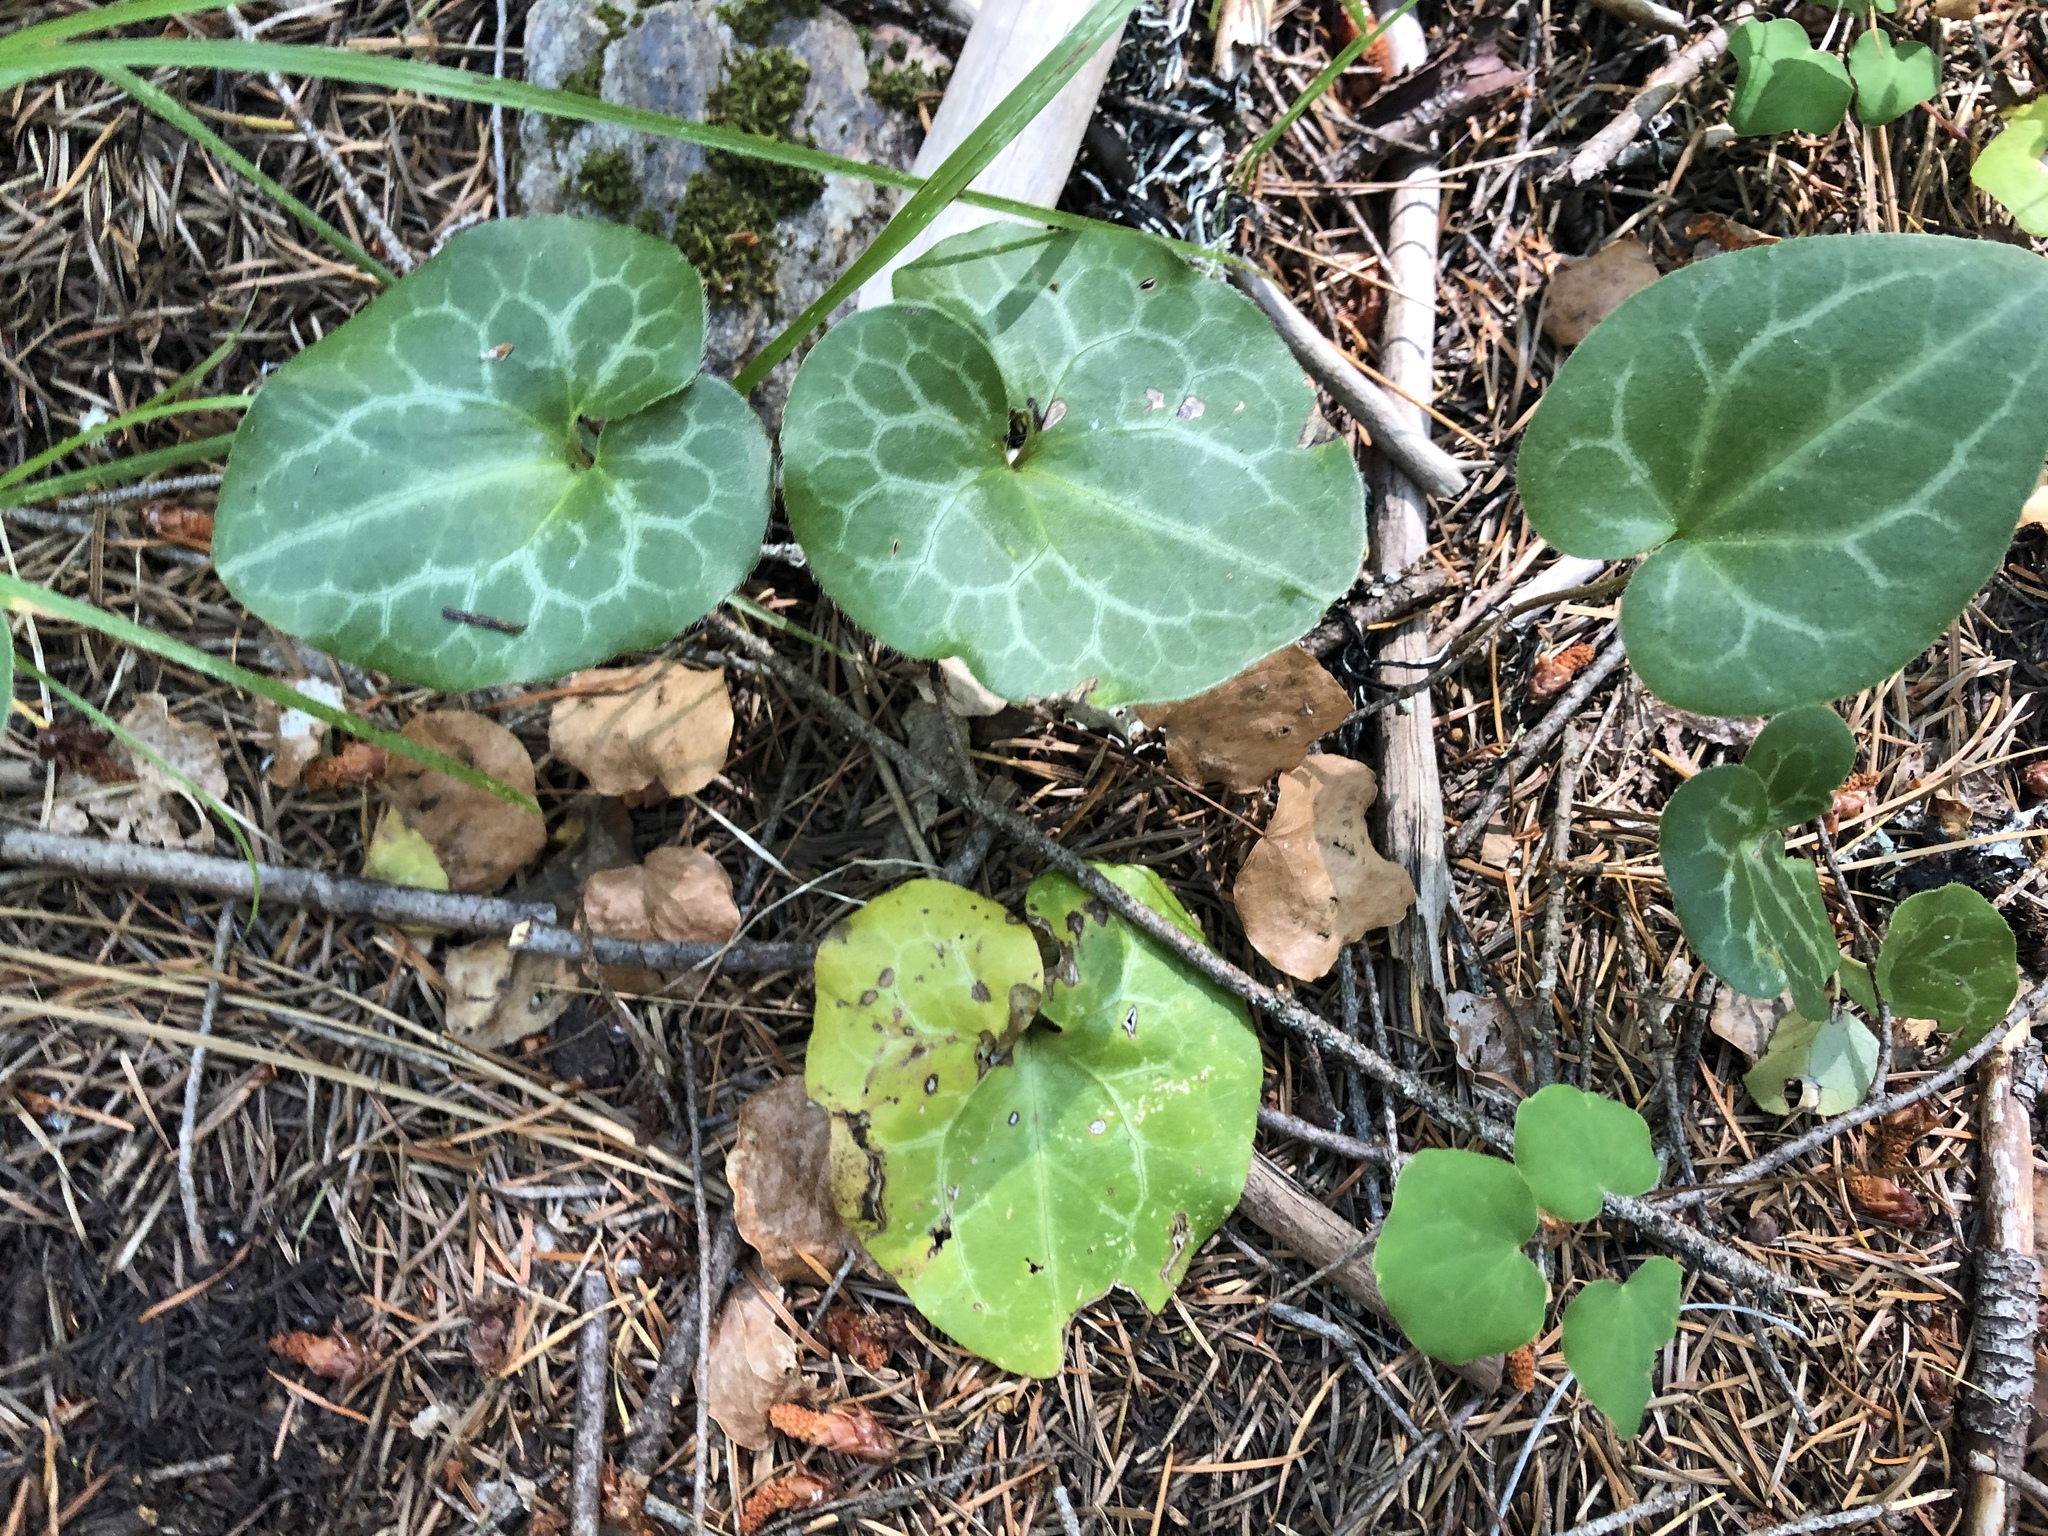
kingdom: Plantae
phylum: Tracheophyta
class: Magnoliopsida
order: Piperales
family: Aristolochiaceae
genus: Asarum
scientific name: Asarum hartwegii
